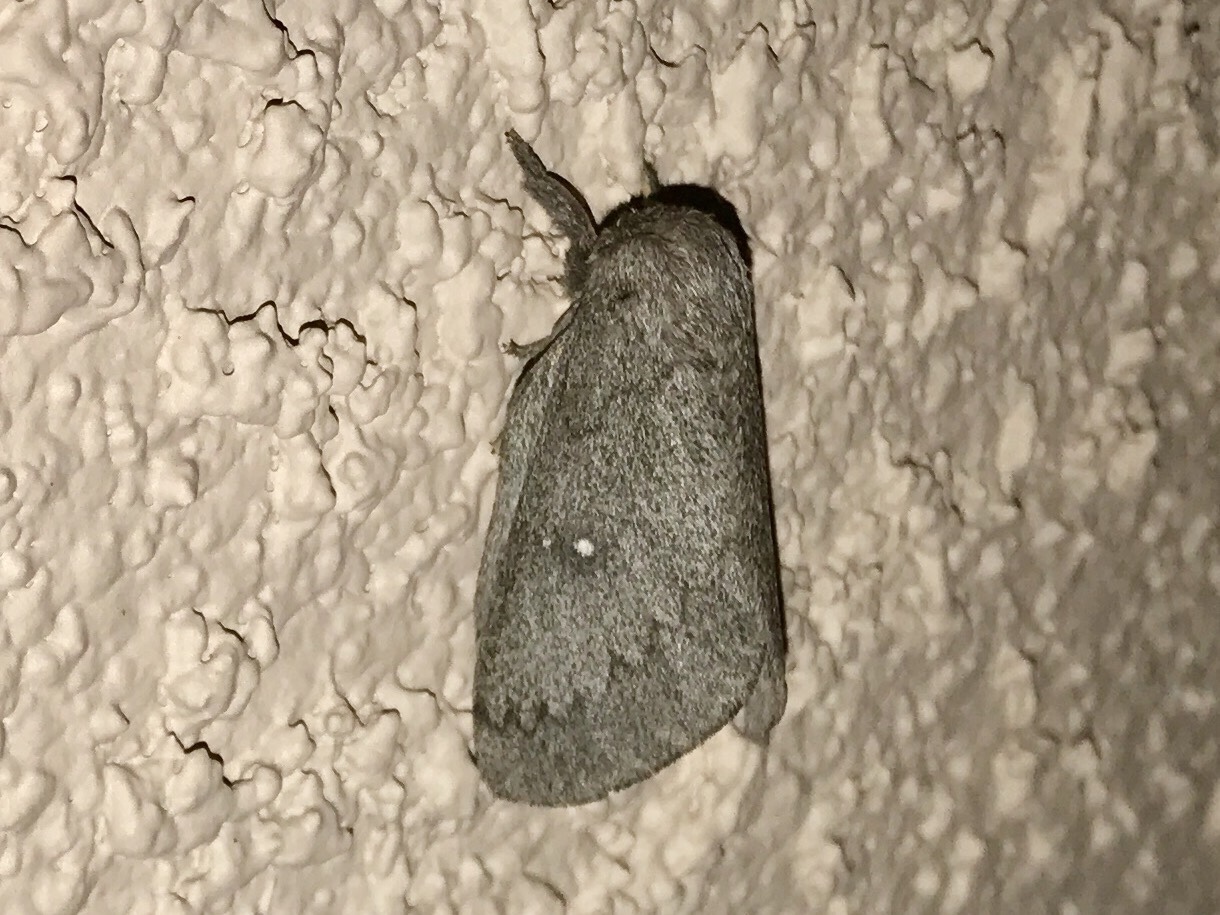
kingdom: Animalia
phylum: Arthropoda
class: Insecta
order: Lepidoptera
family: Saturniidae
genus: Syssphinx
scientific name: Syssphinx hubbardi
